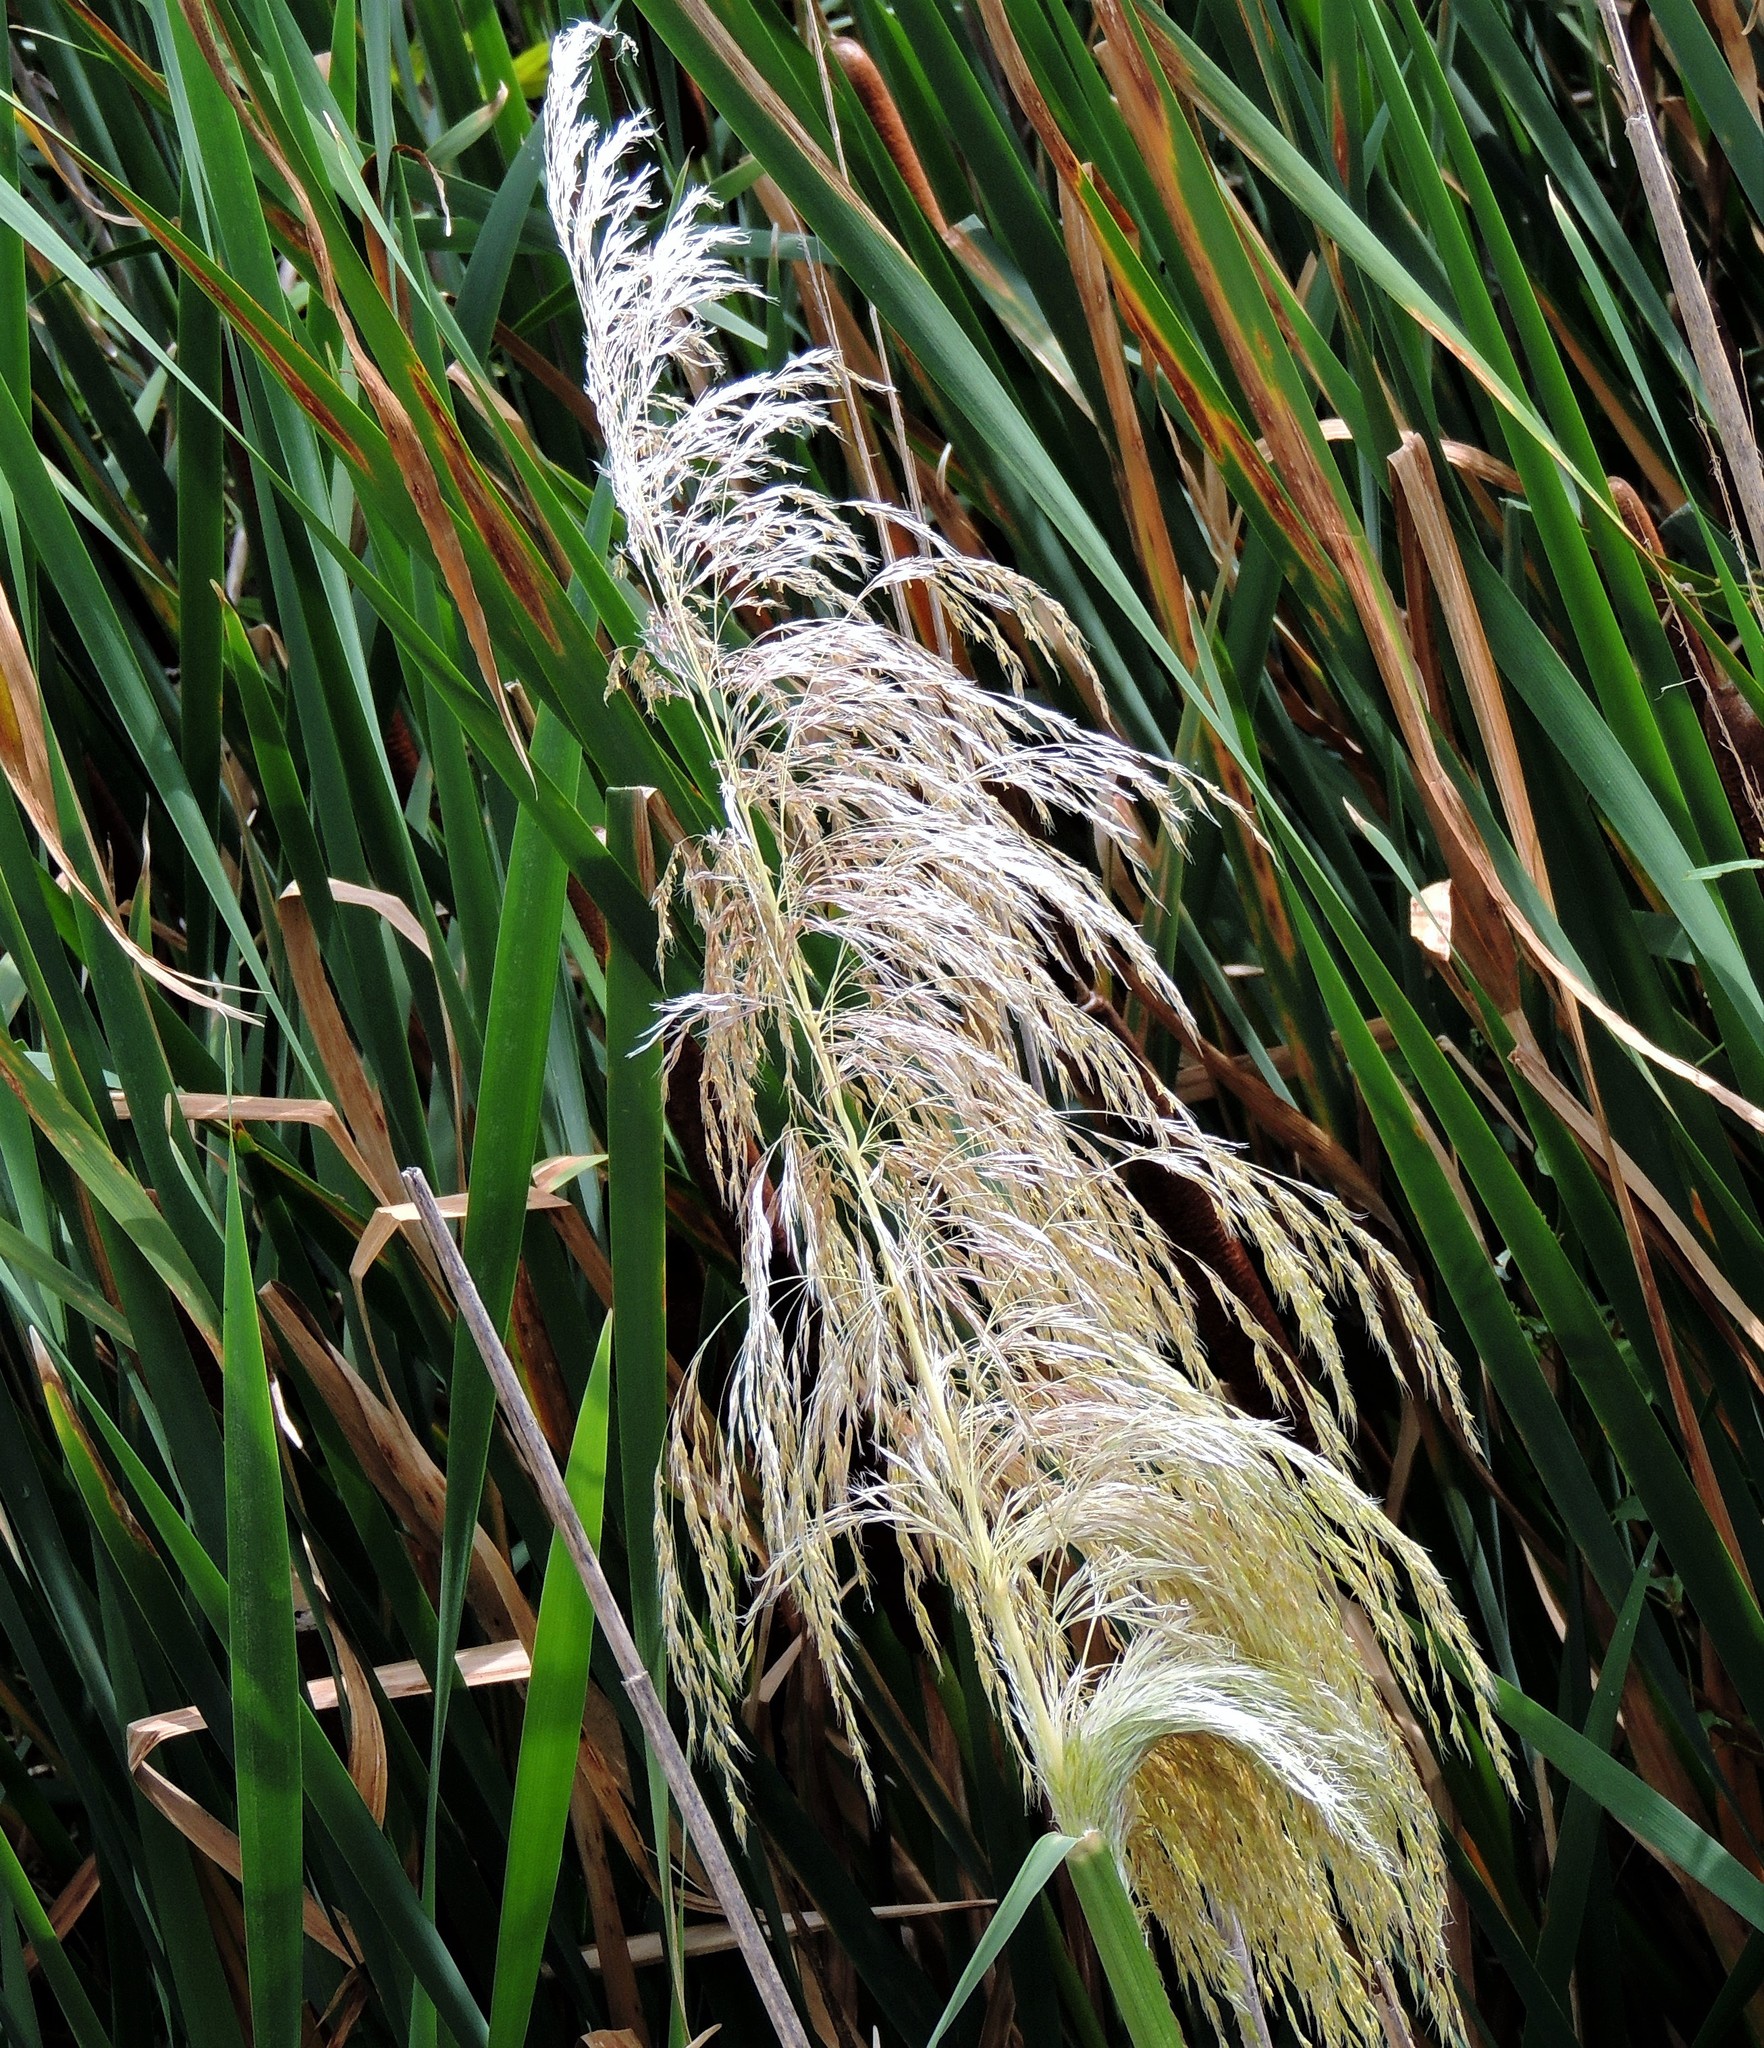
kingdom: Plantae
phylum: Tracheophyta
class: Liliopsida
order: Poales
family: Poaceae
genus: Cortaderia
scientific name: Cortaderia selloana
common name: Uruguayan pampas grass
